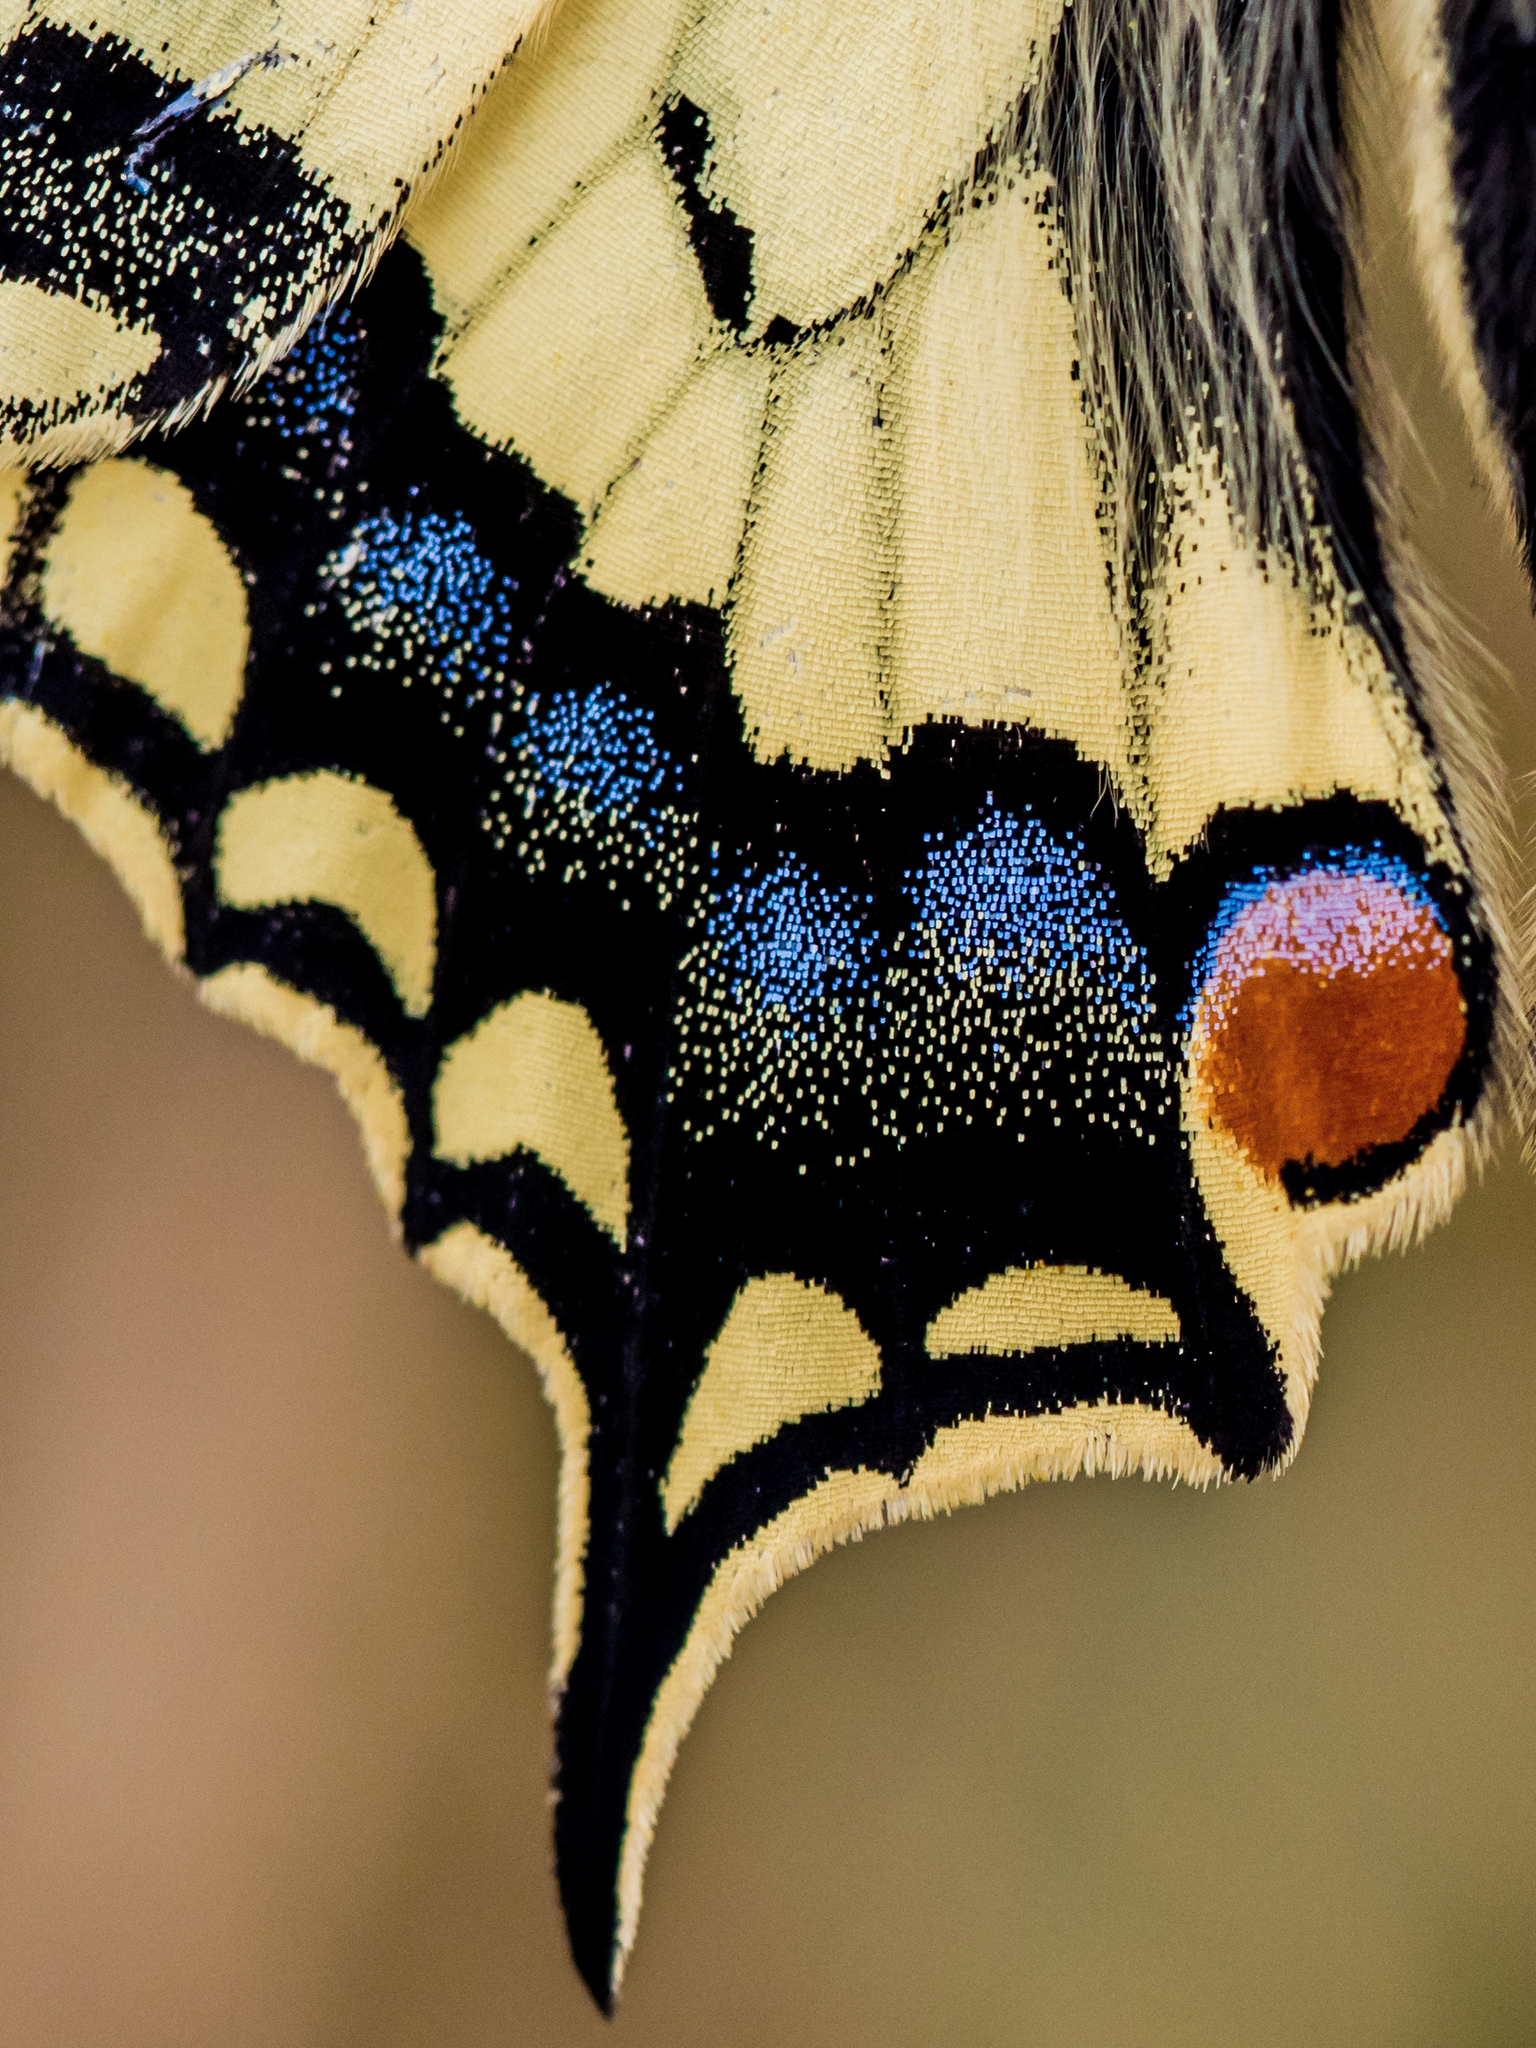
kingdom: Animalia
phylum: Arthropoda
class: Insecta
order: Lepidoptera
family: Papilionidae
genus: Papilio
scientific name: Papilio machaon
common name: Swallowtail
